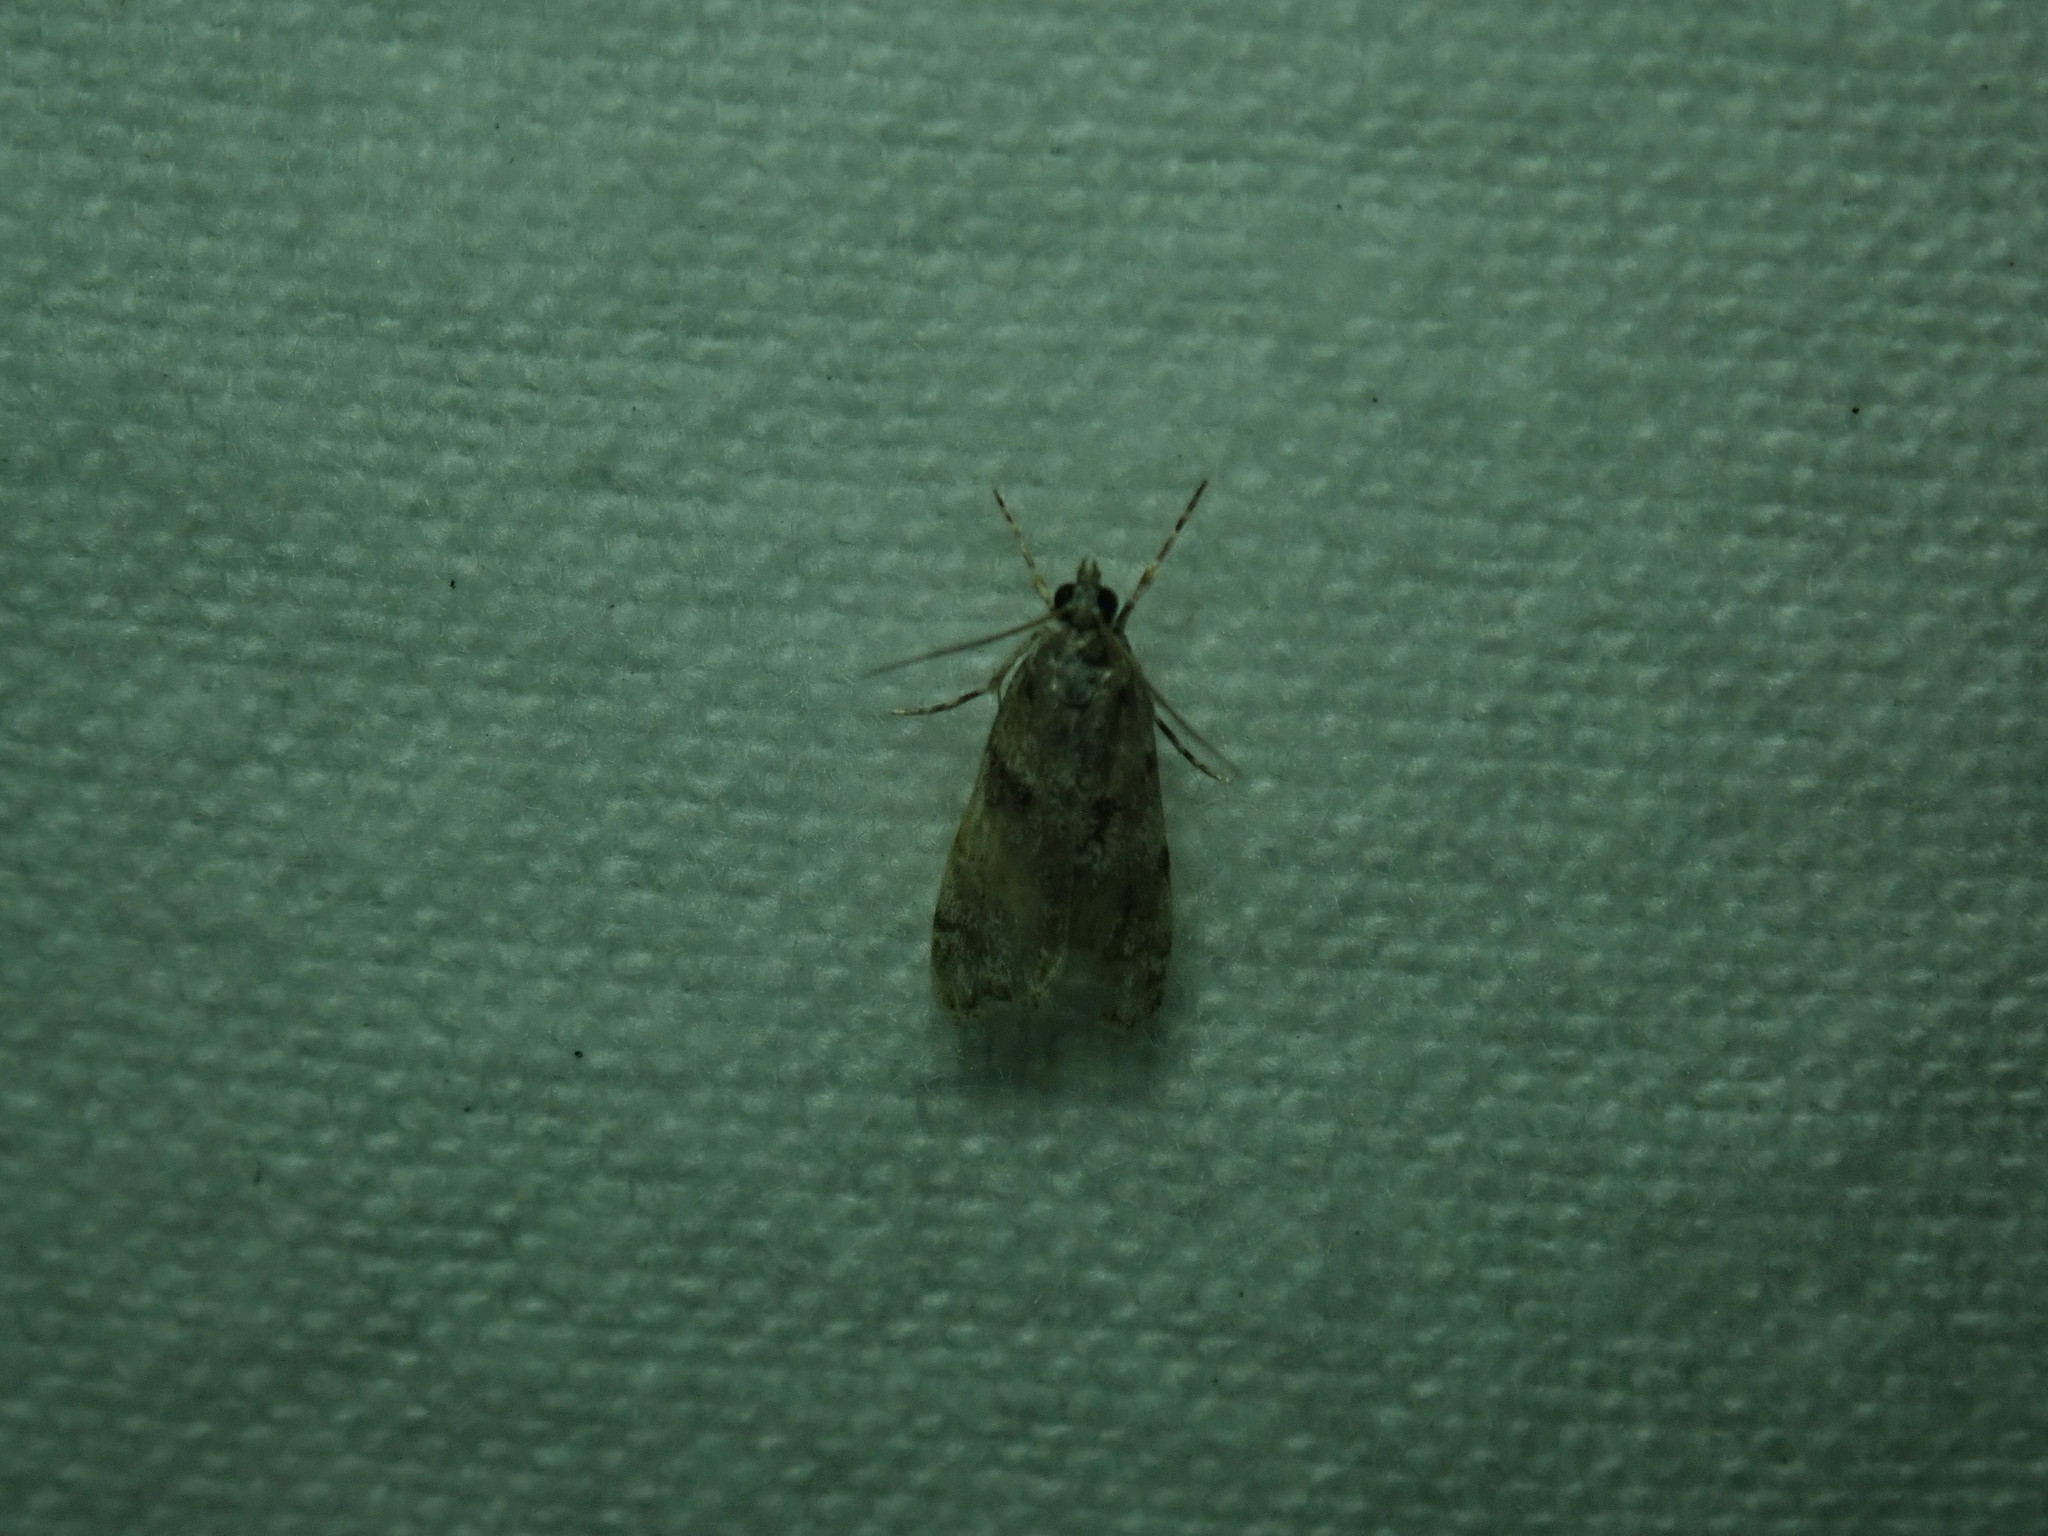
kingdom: Animalia
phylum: Arthropoda
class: Insecta
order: Lepidoptera
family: Crambidae
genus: Scoparia
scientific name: Scoparia biplagialis
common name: Double-striped scoparia moth
